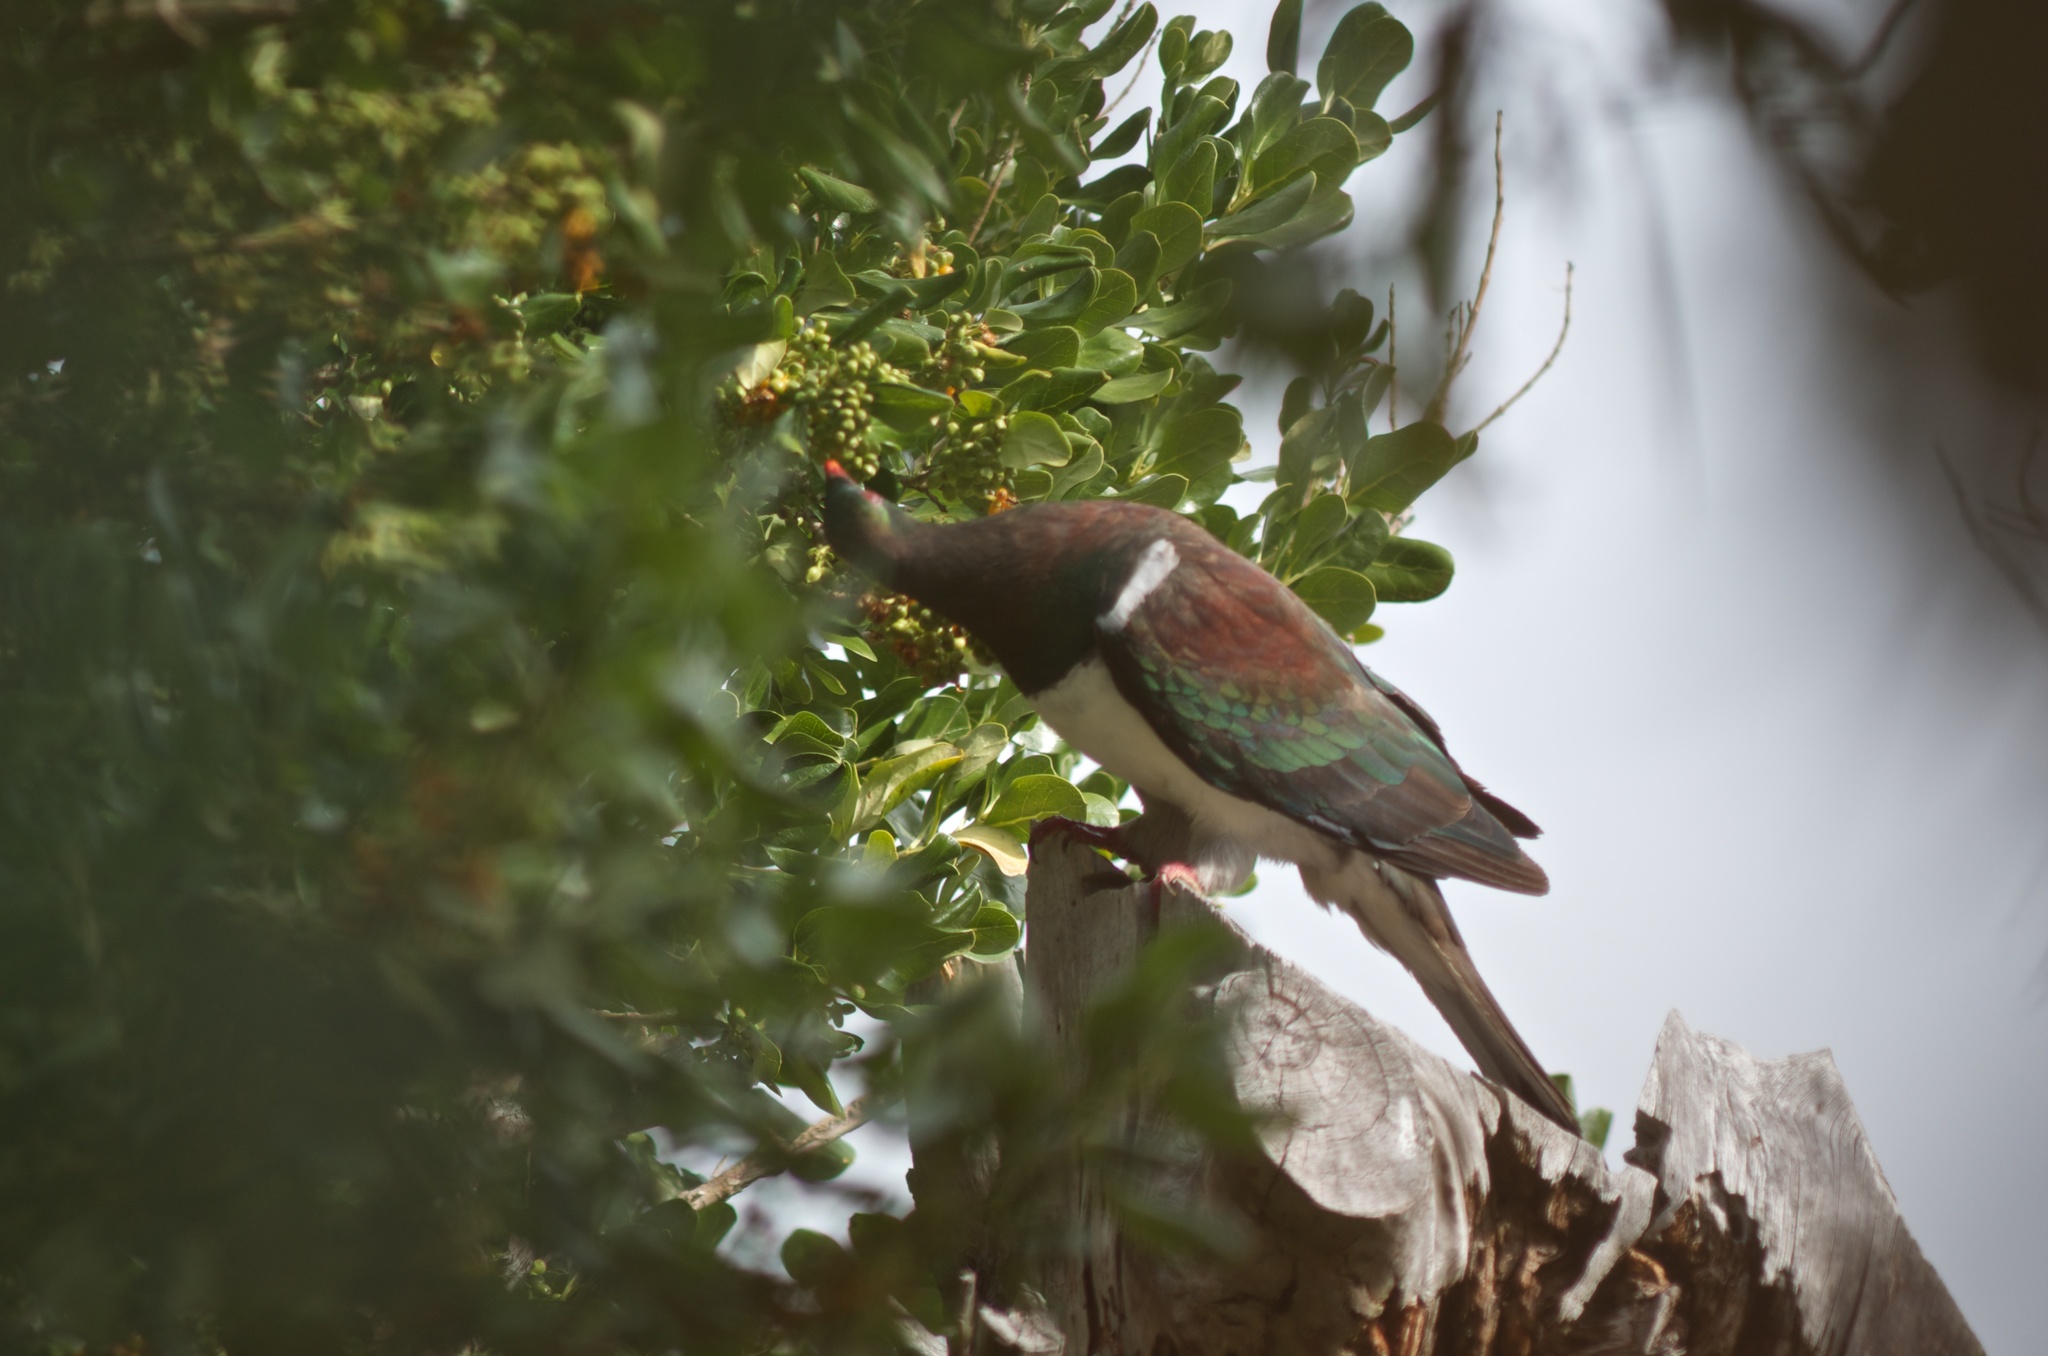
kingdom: Animalia
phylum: Chordata
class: Aves
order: Columbiformes
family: Columbidae
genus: Hemiphaga
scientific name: Hemiphaga novaeseelandiae
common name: New zealand pigeon
